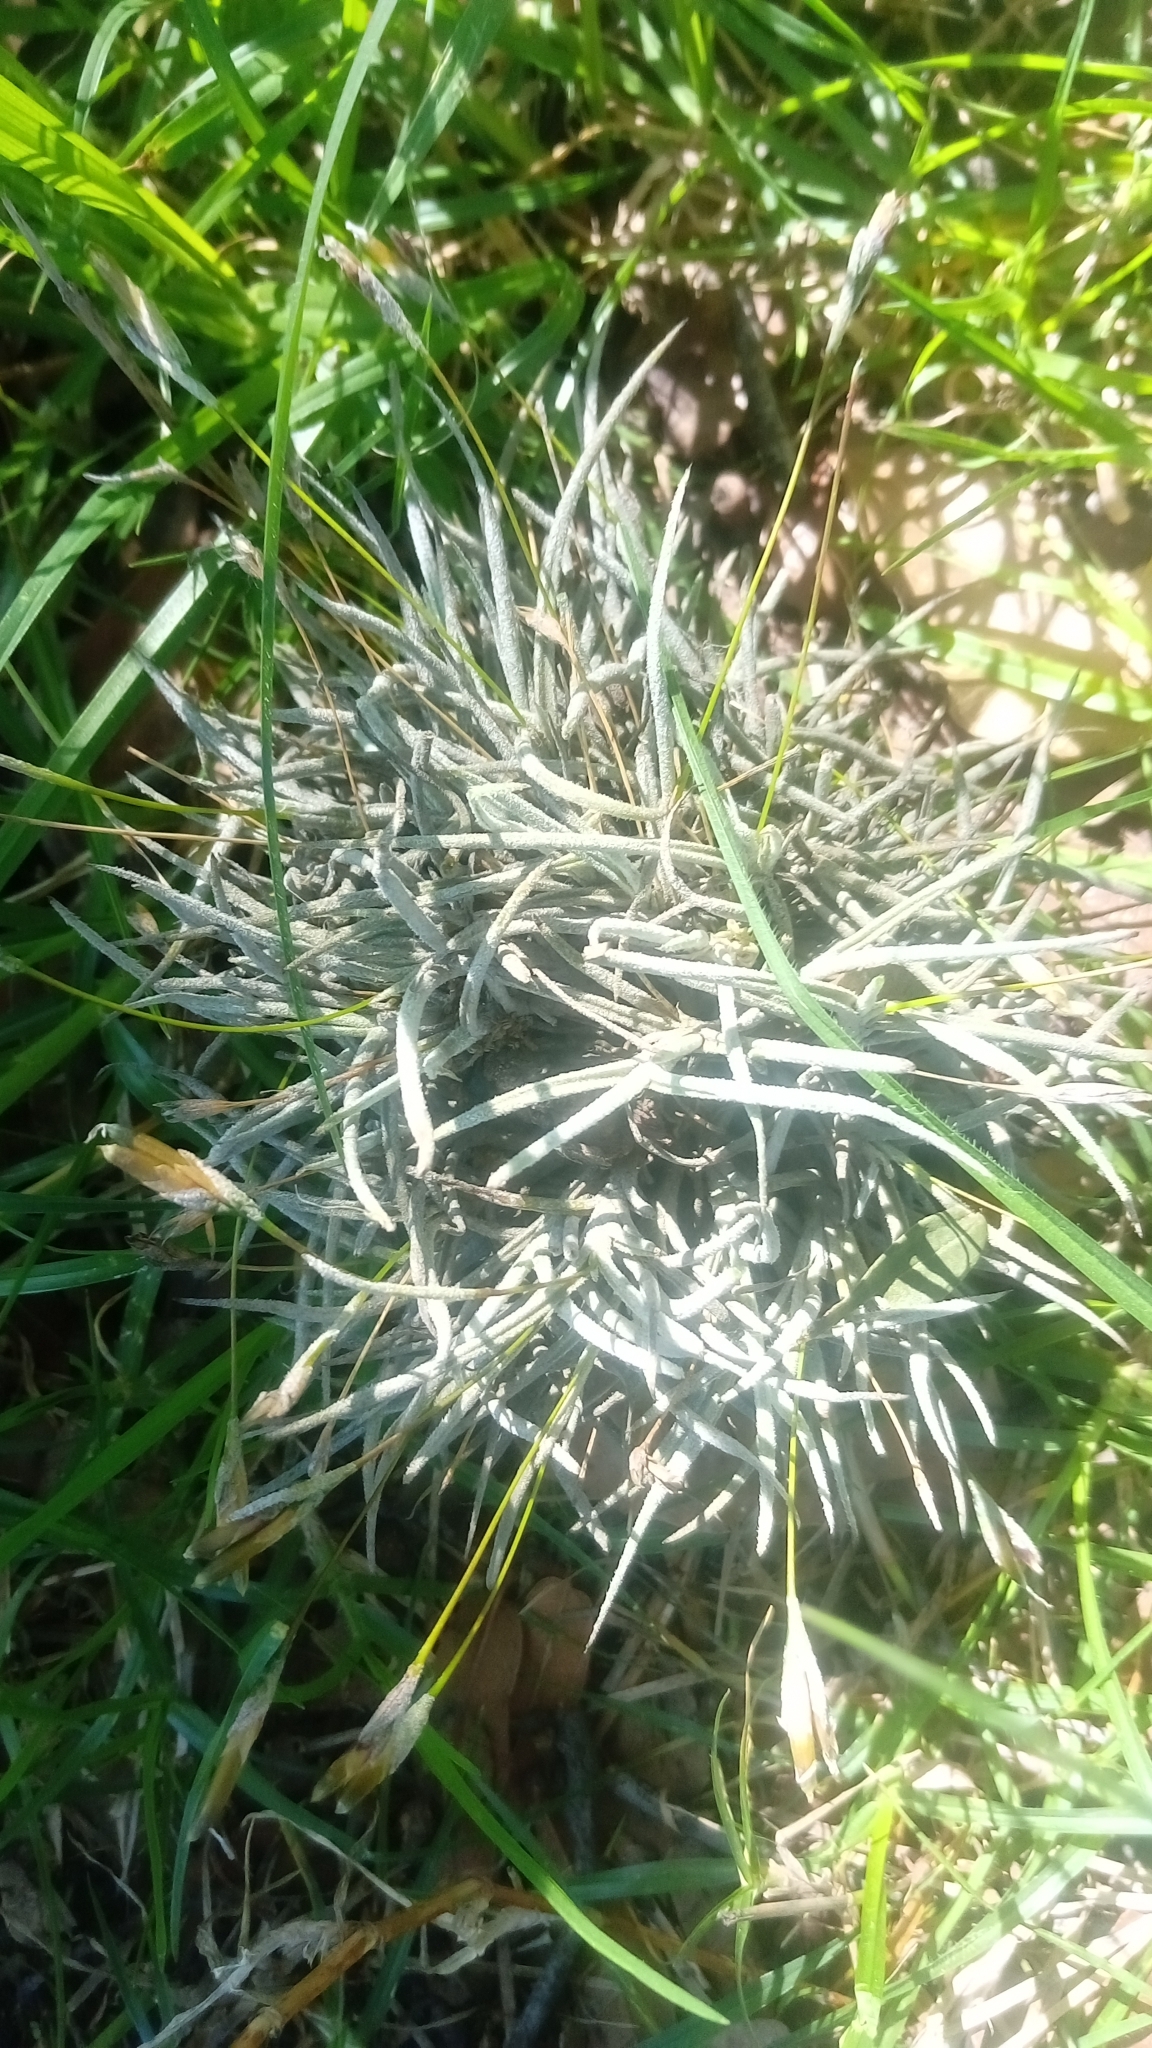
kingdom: Plantae
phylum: Tracheophyta
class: Liliopsida
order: Poales
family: Bromeliaceae
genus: Tillandsia
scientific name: Tillandsia recurvata
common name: Small ballmoss
